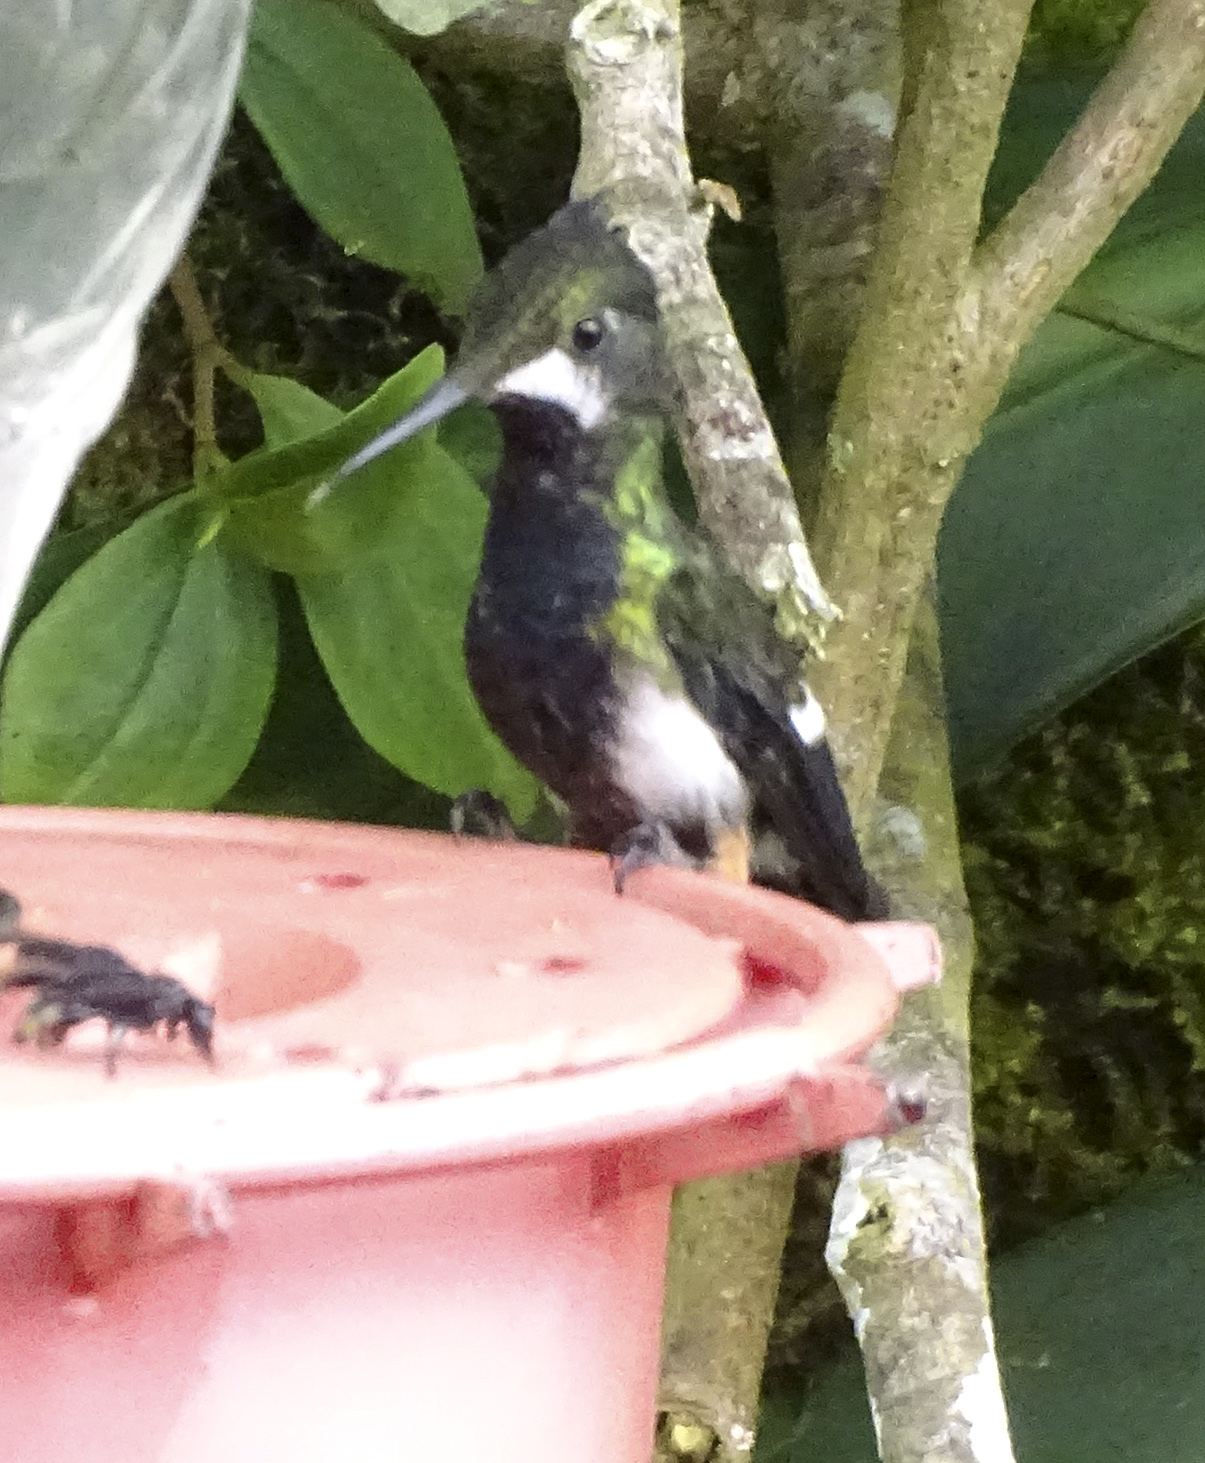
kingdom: Animalia
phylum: Chordata
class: Aves
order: Apodiformes
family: Trochilidae
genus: Discosura
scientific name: Discosura popelairii
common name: Wire-crested thorntail
